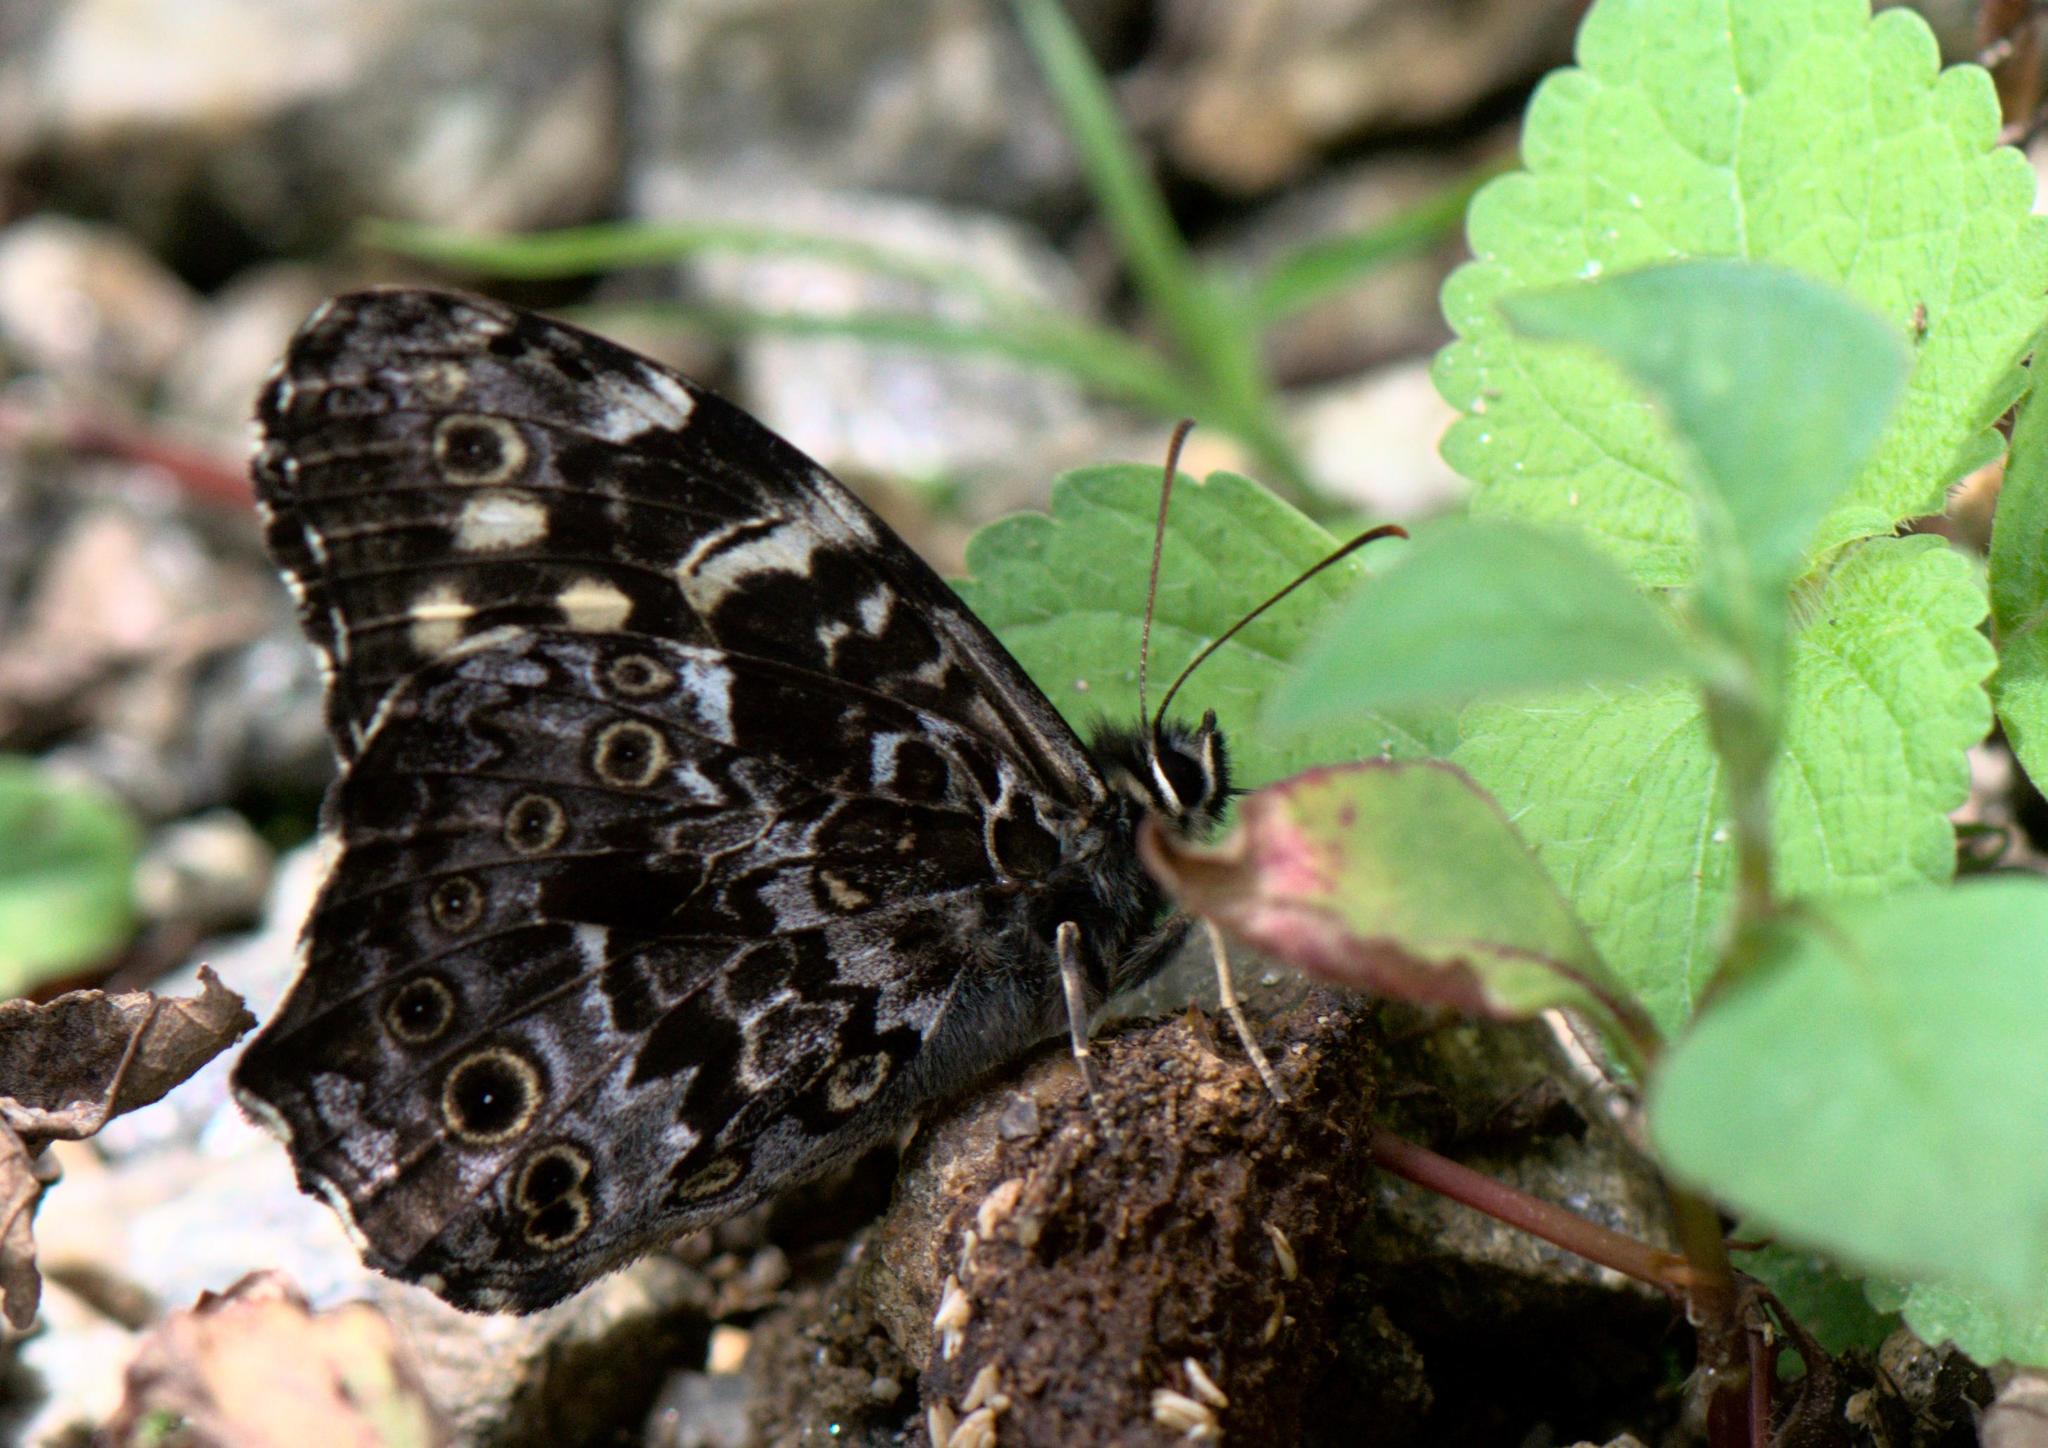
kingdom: Animalia
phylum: Arthropoda
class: Insecta
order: Lepidoptera
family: Nymphalidae
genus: Neope
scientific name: Neope pulaha
